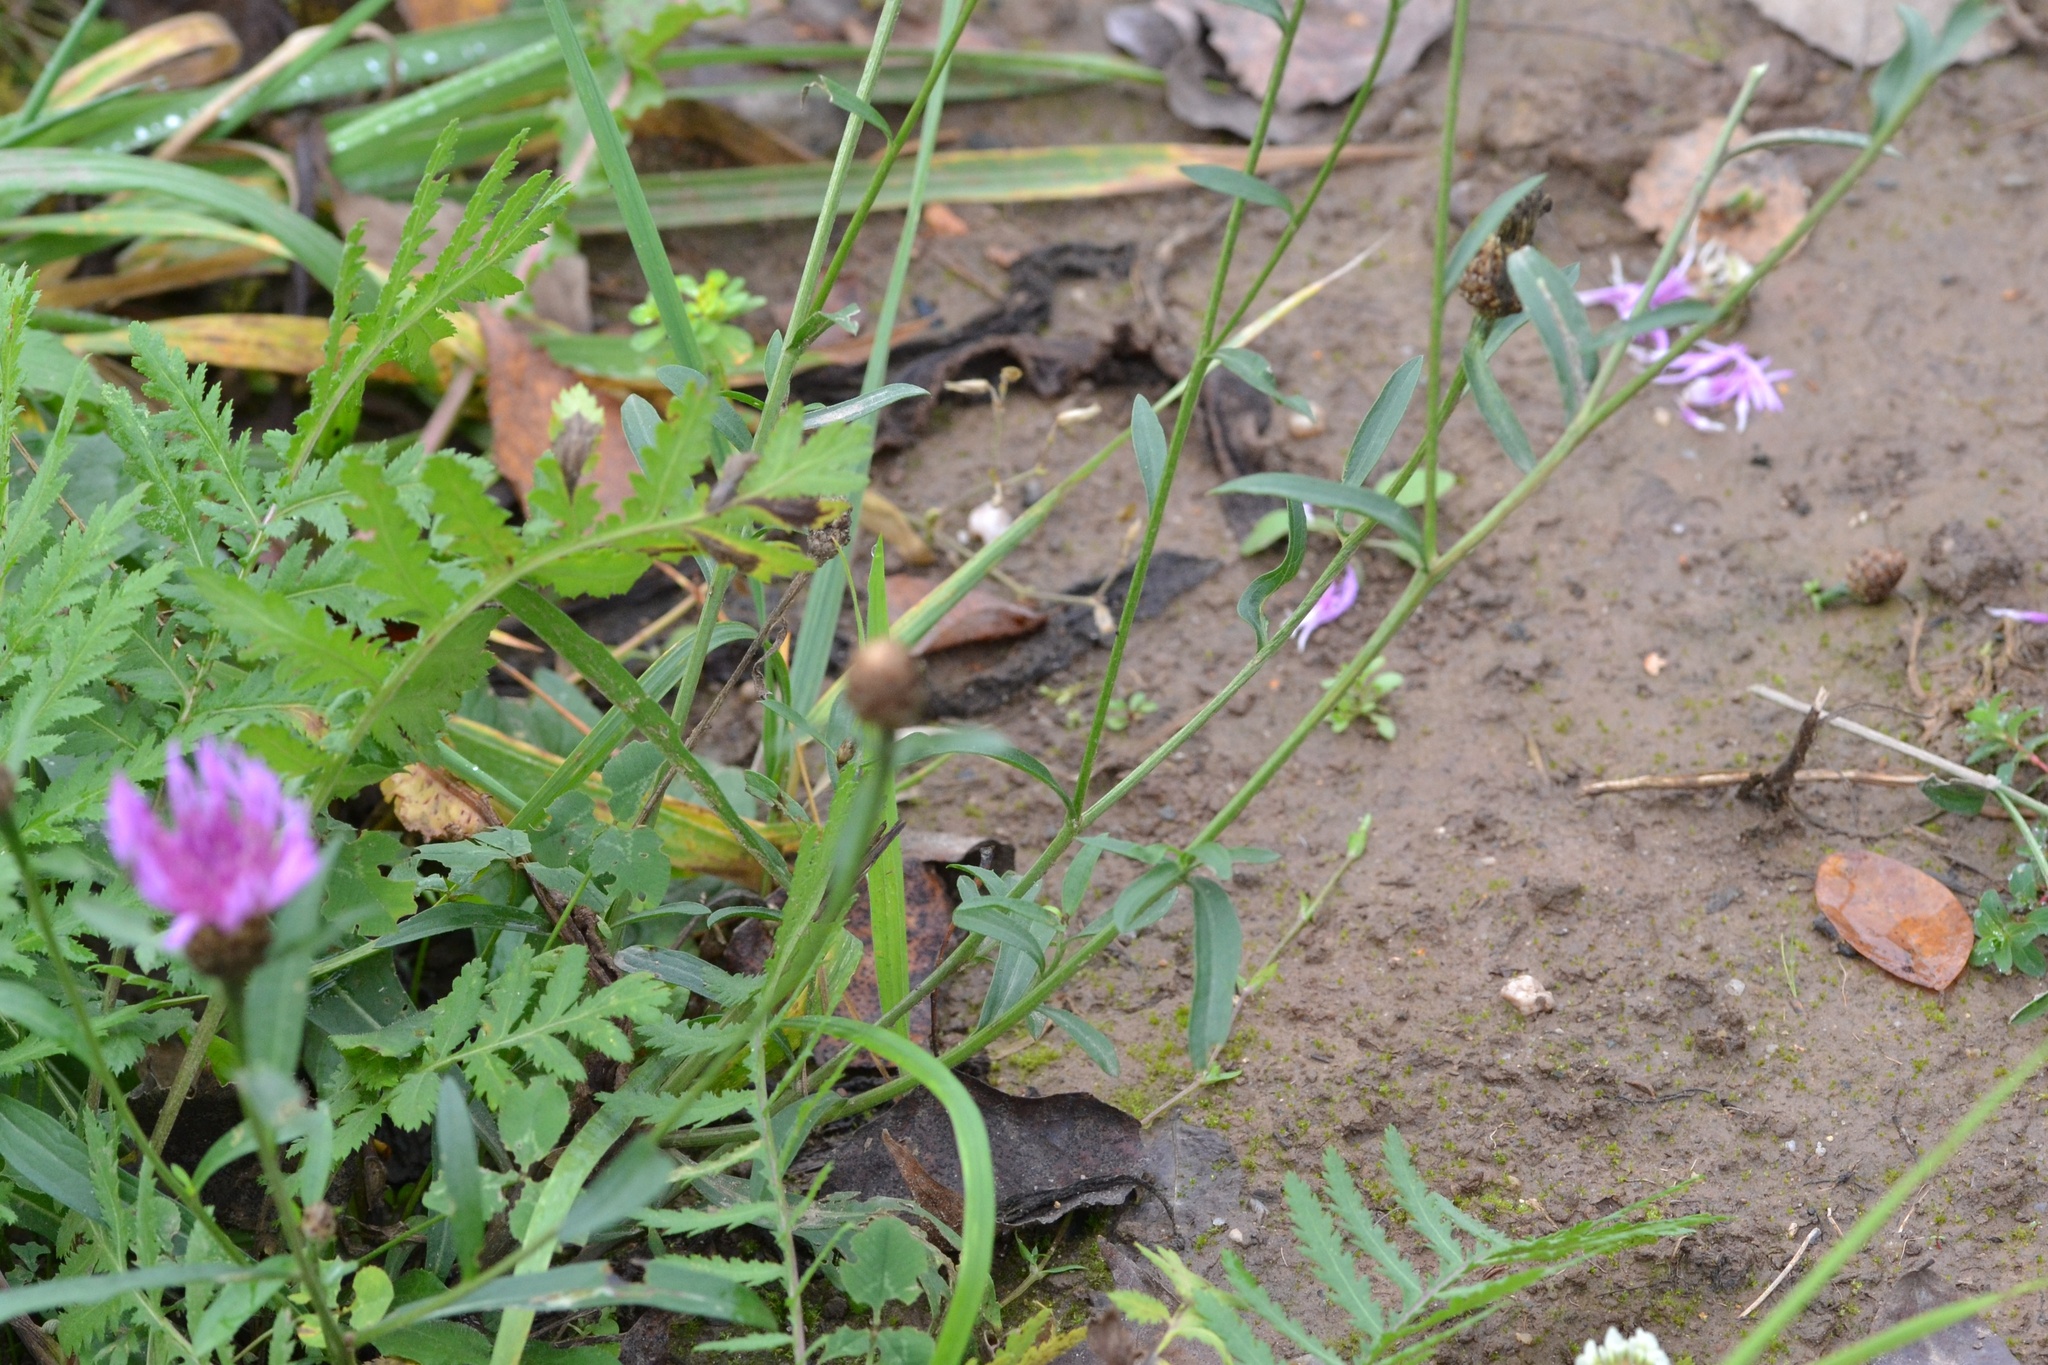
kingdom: Plantae
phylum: Tracheophyta
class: Magnoliopsida
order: Asterales
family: Asteraceae
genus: Centaurea
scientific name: Centaurea jacea
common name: Brown knapweed
